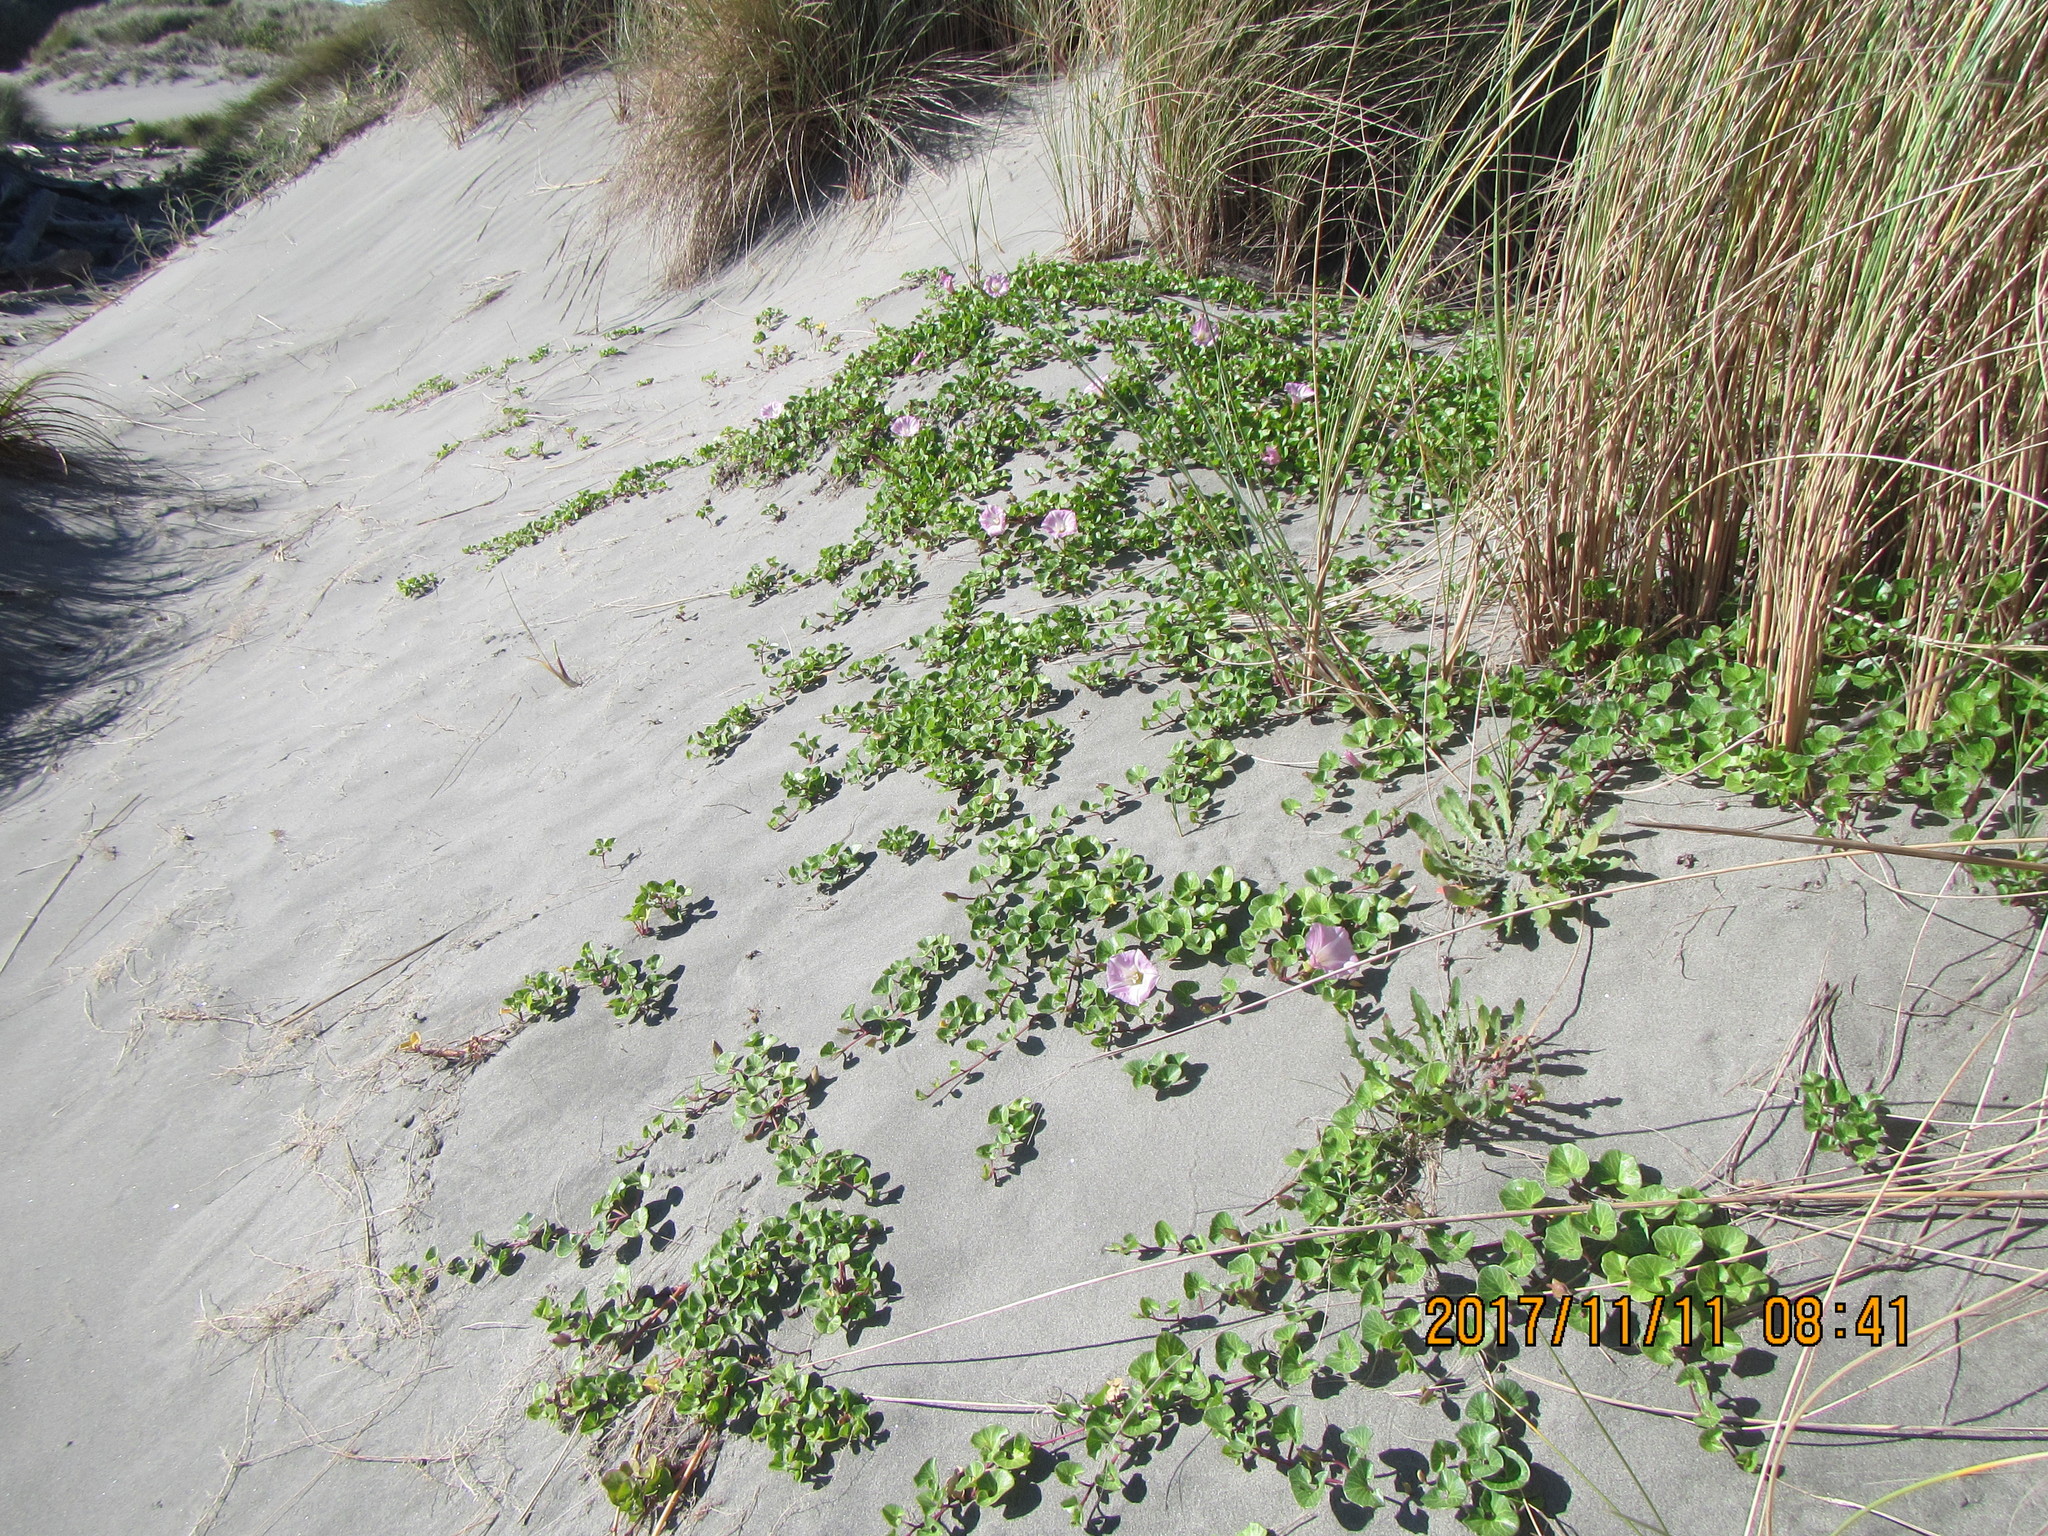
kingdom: Plantae
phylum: Tracheophyta
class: Magnoliopsida
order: Solanales
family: Convolvulaceae
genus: Calystegia
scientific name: Calystegia soldanella
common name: Sea bindweed
